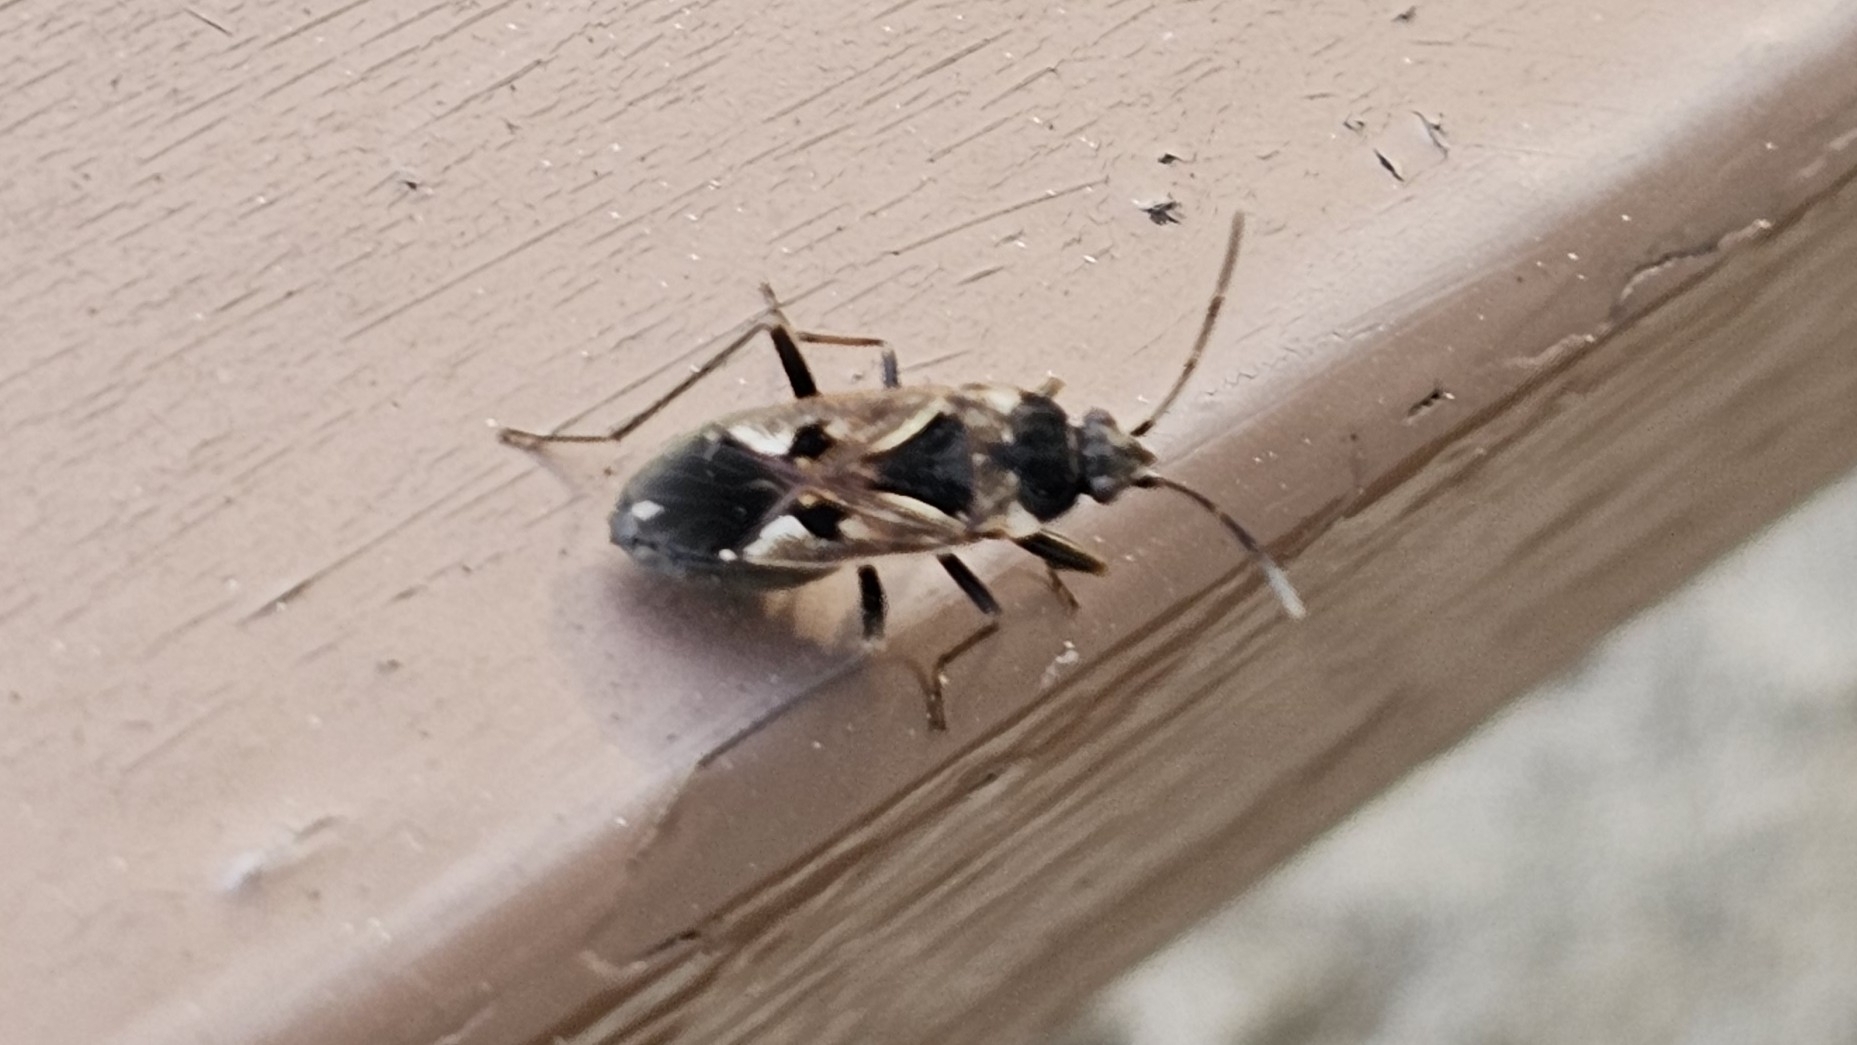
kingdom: Animalia
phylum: Arthropoda
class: Insecta
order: Hemiptera
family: Rhyparochromidae
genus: Rhyparochromus
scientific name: Rhyparochromus vulgaris
